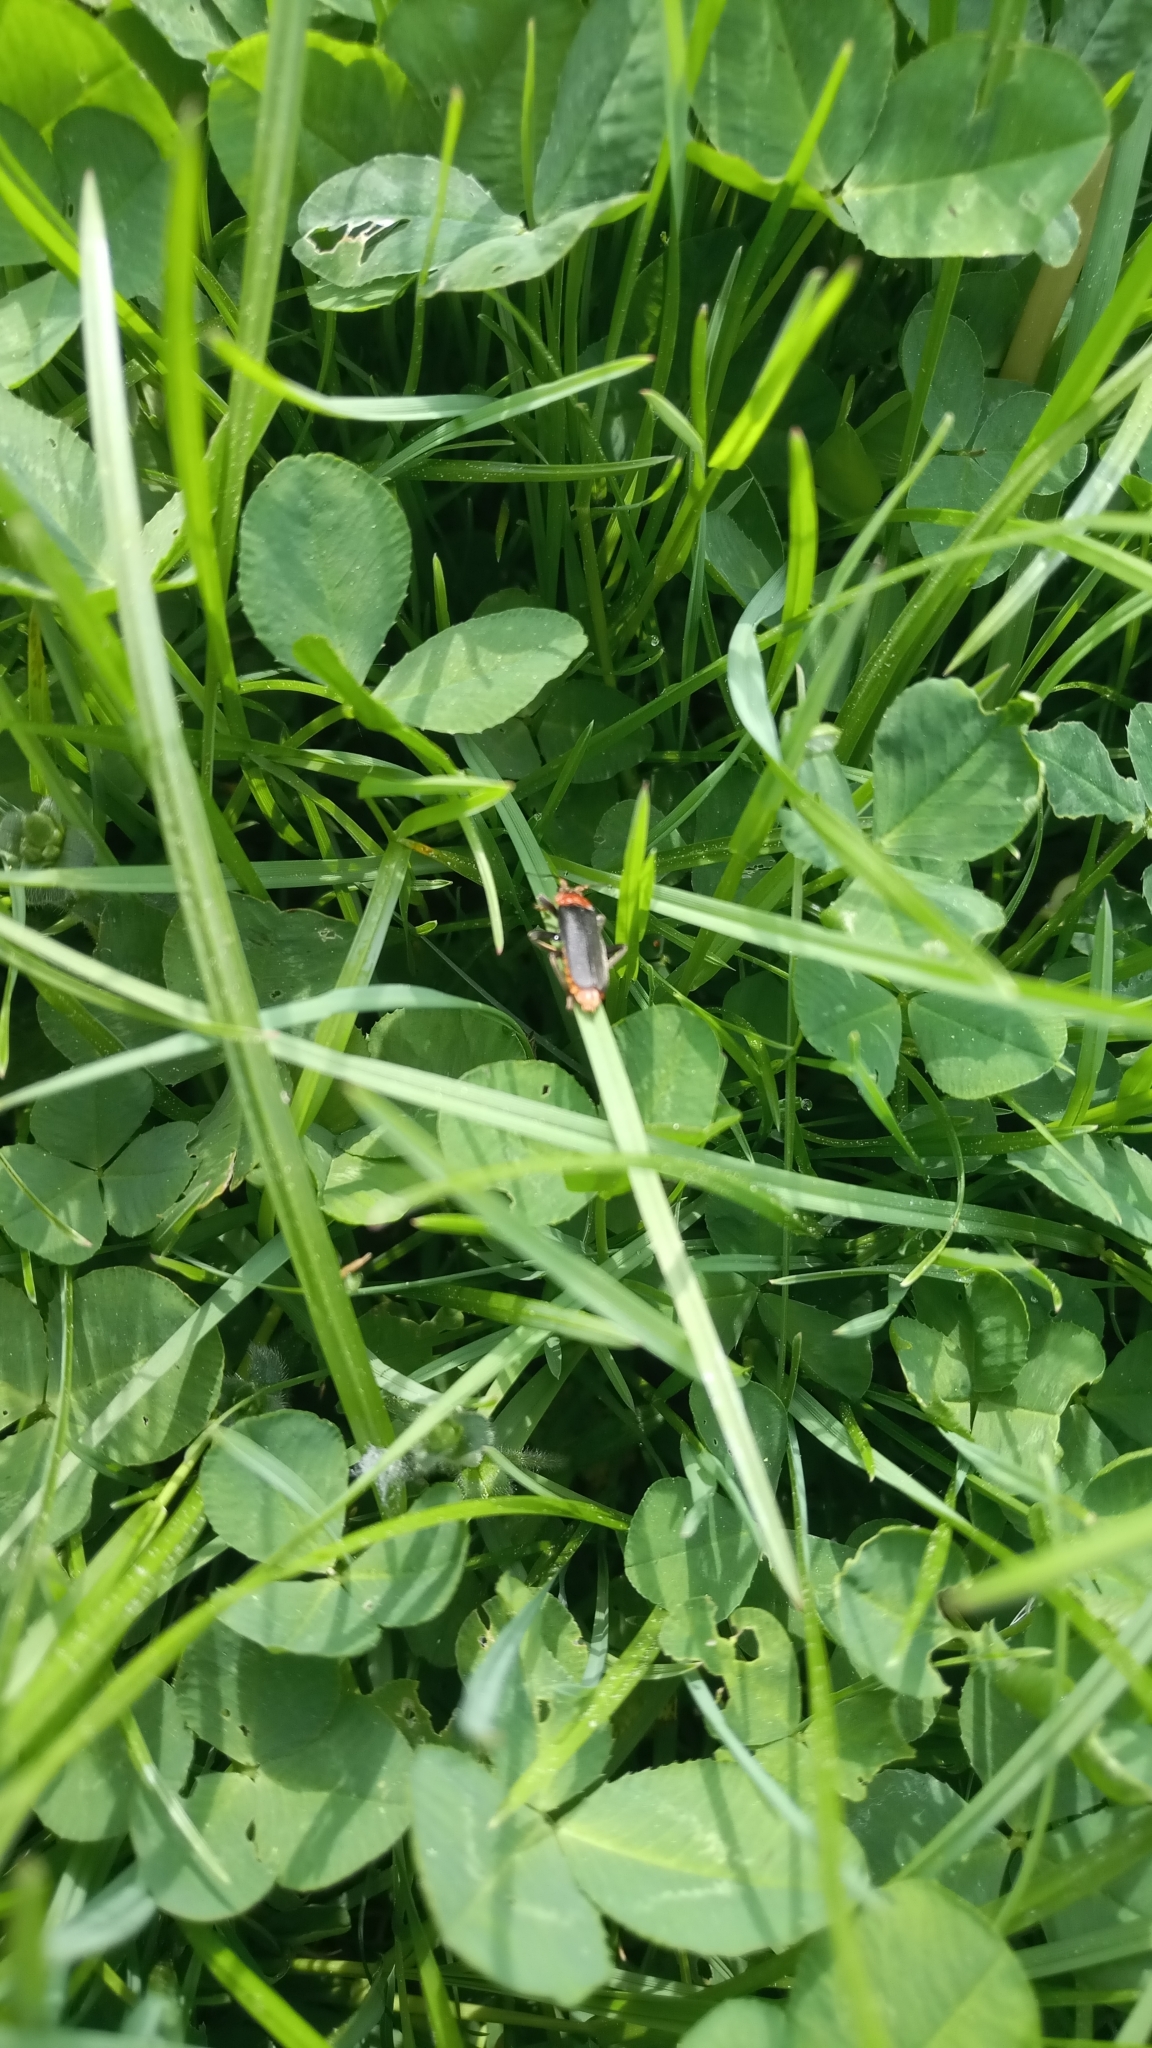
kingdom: Animalia
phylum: Arthropoda
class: Insecta
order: Coleoptera
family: Cantharidae
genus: Cantharis
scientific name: Cantharis fusca
